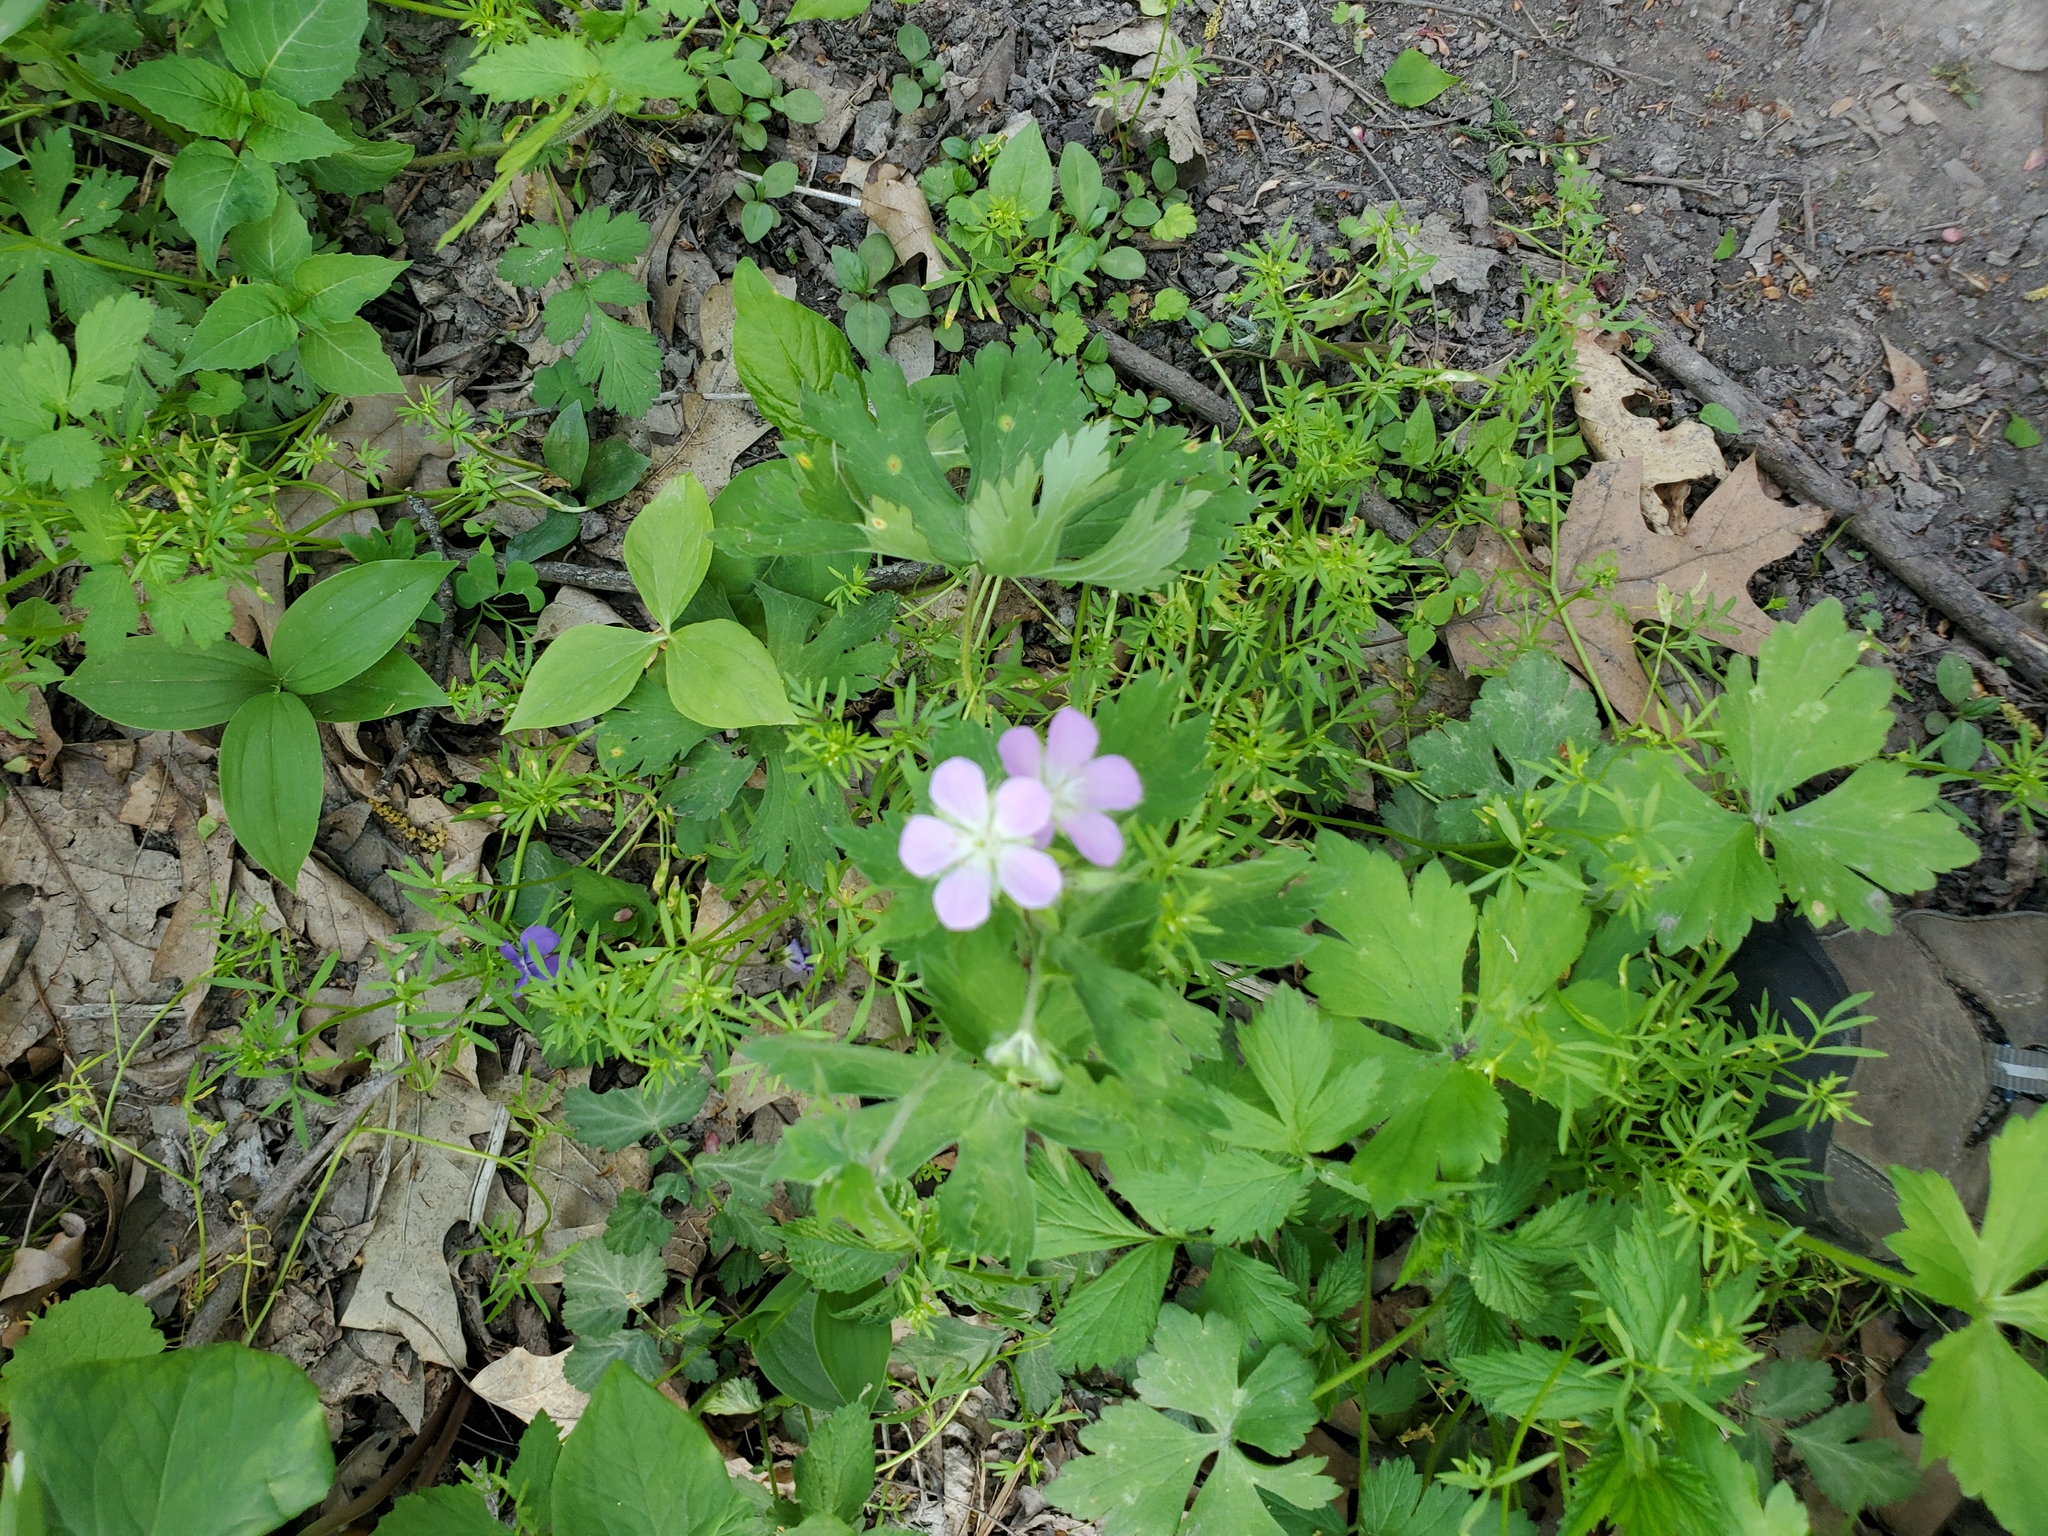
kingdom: Plantae
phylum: Tracheophyta
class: Magnoliopsida
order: Geraniales
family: Geraniaceae
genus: Geranium
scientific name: Geranium maculatum
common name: Spotted geranium
